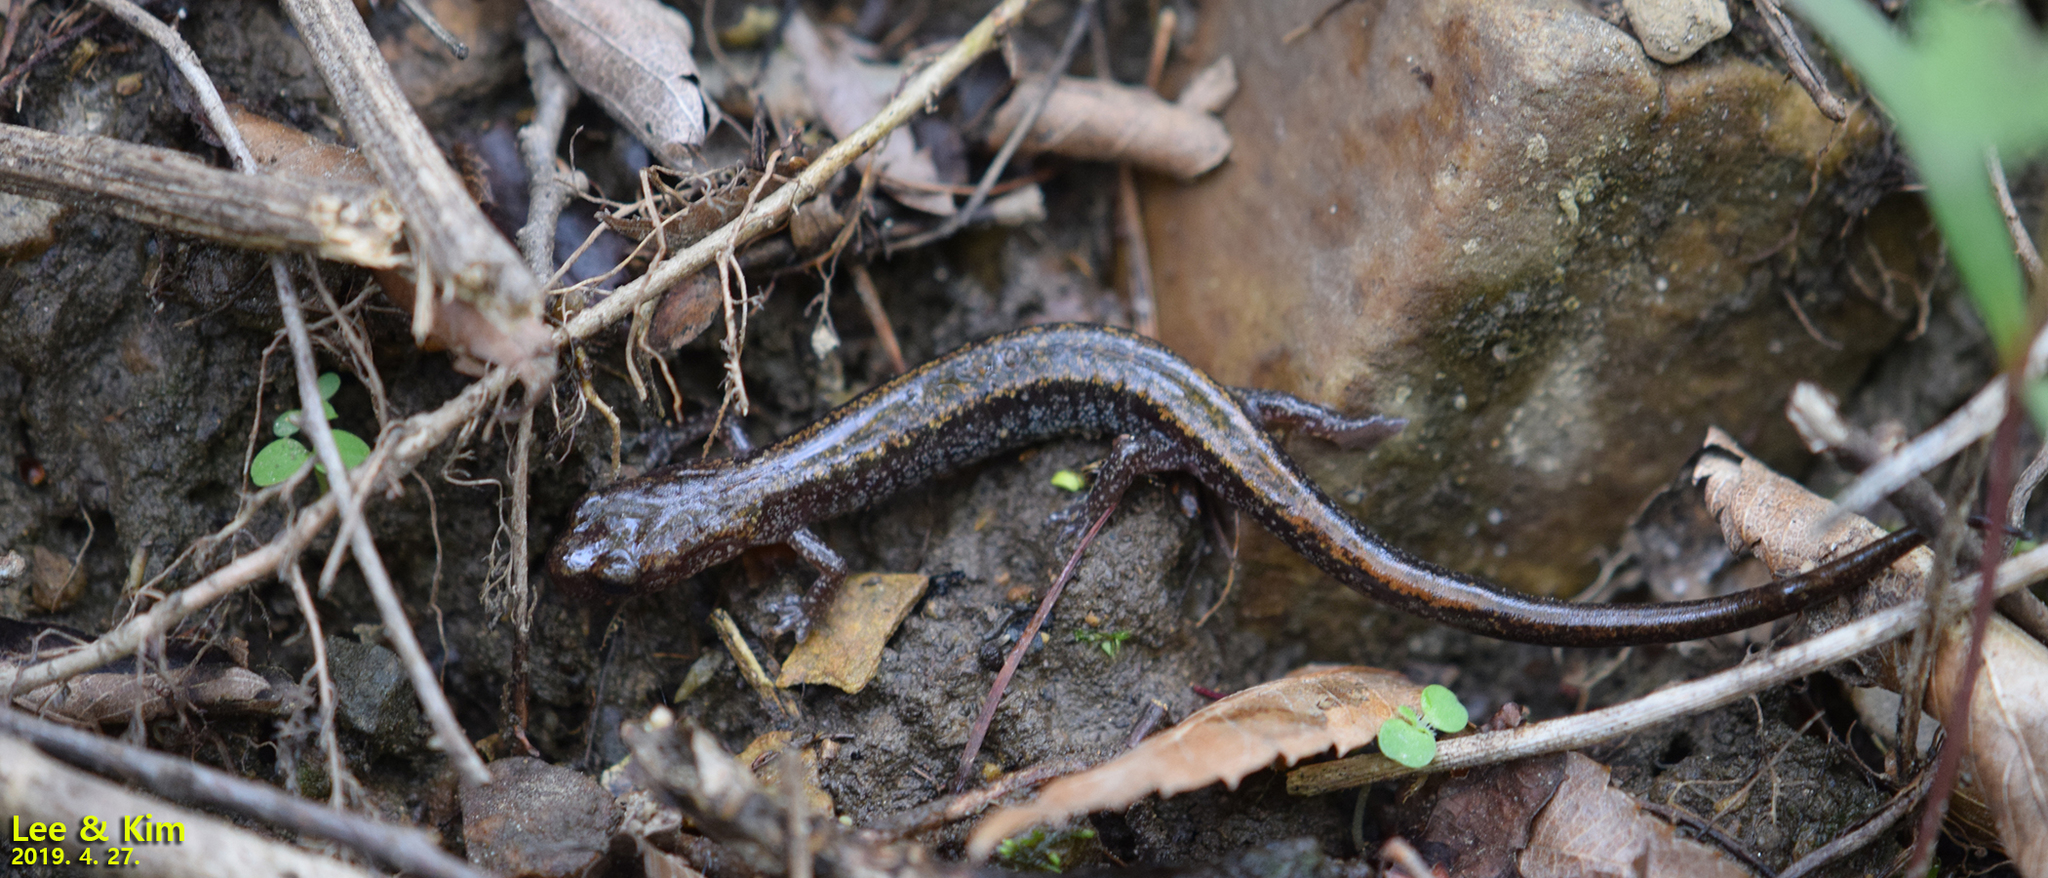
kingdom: Animalia
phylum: Chordata
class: Amphibia
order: Caudata
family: Plethodontidae
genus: Karsenia
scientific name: Karsenia koreana
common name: Korean crevice salamander
